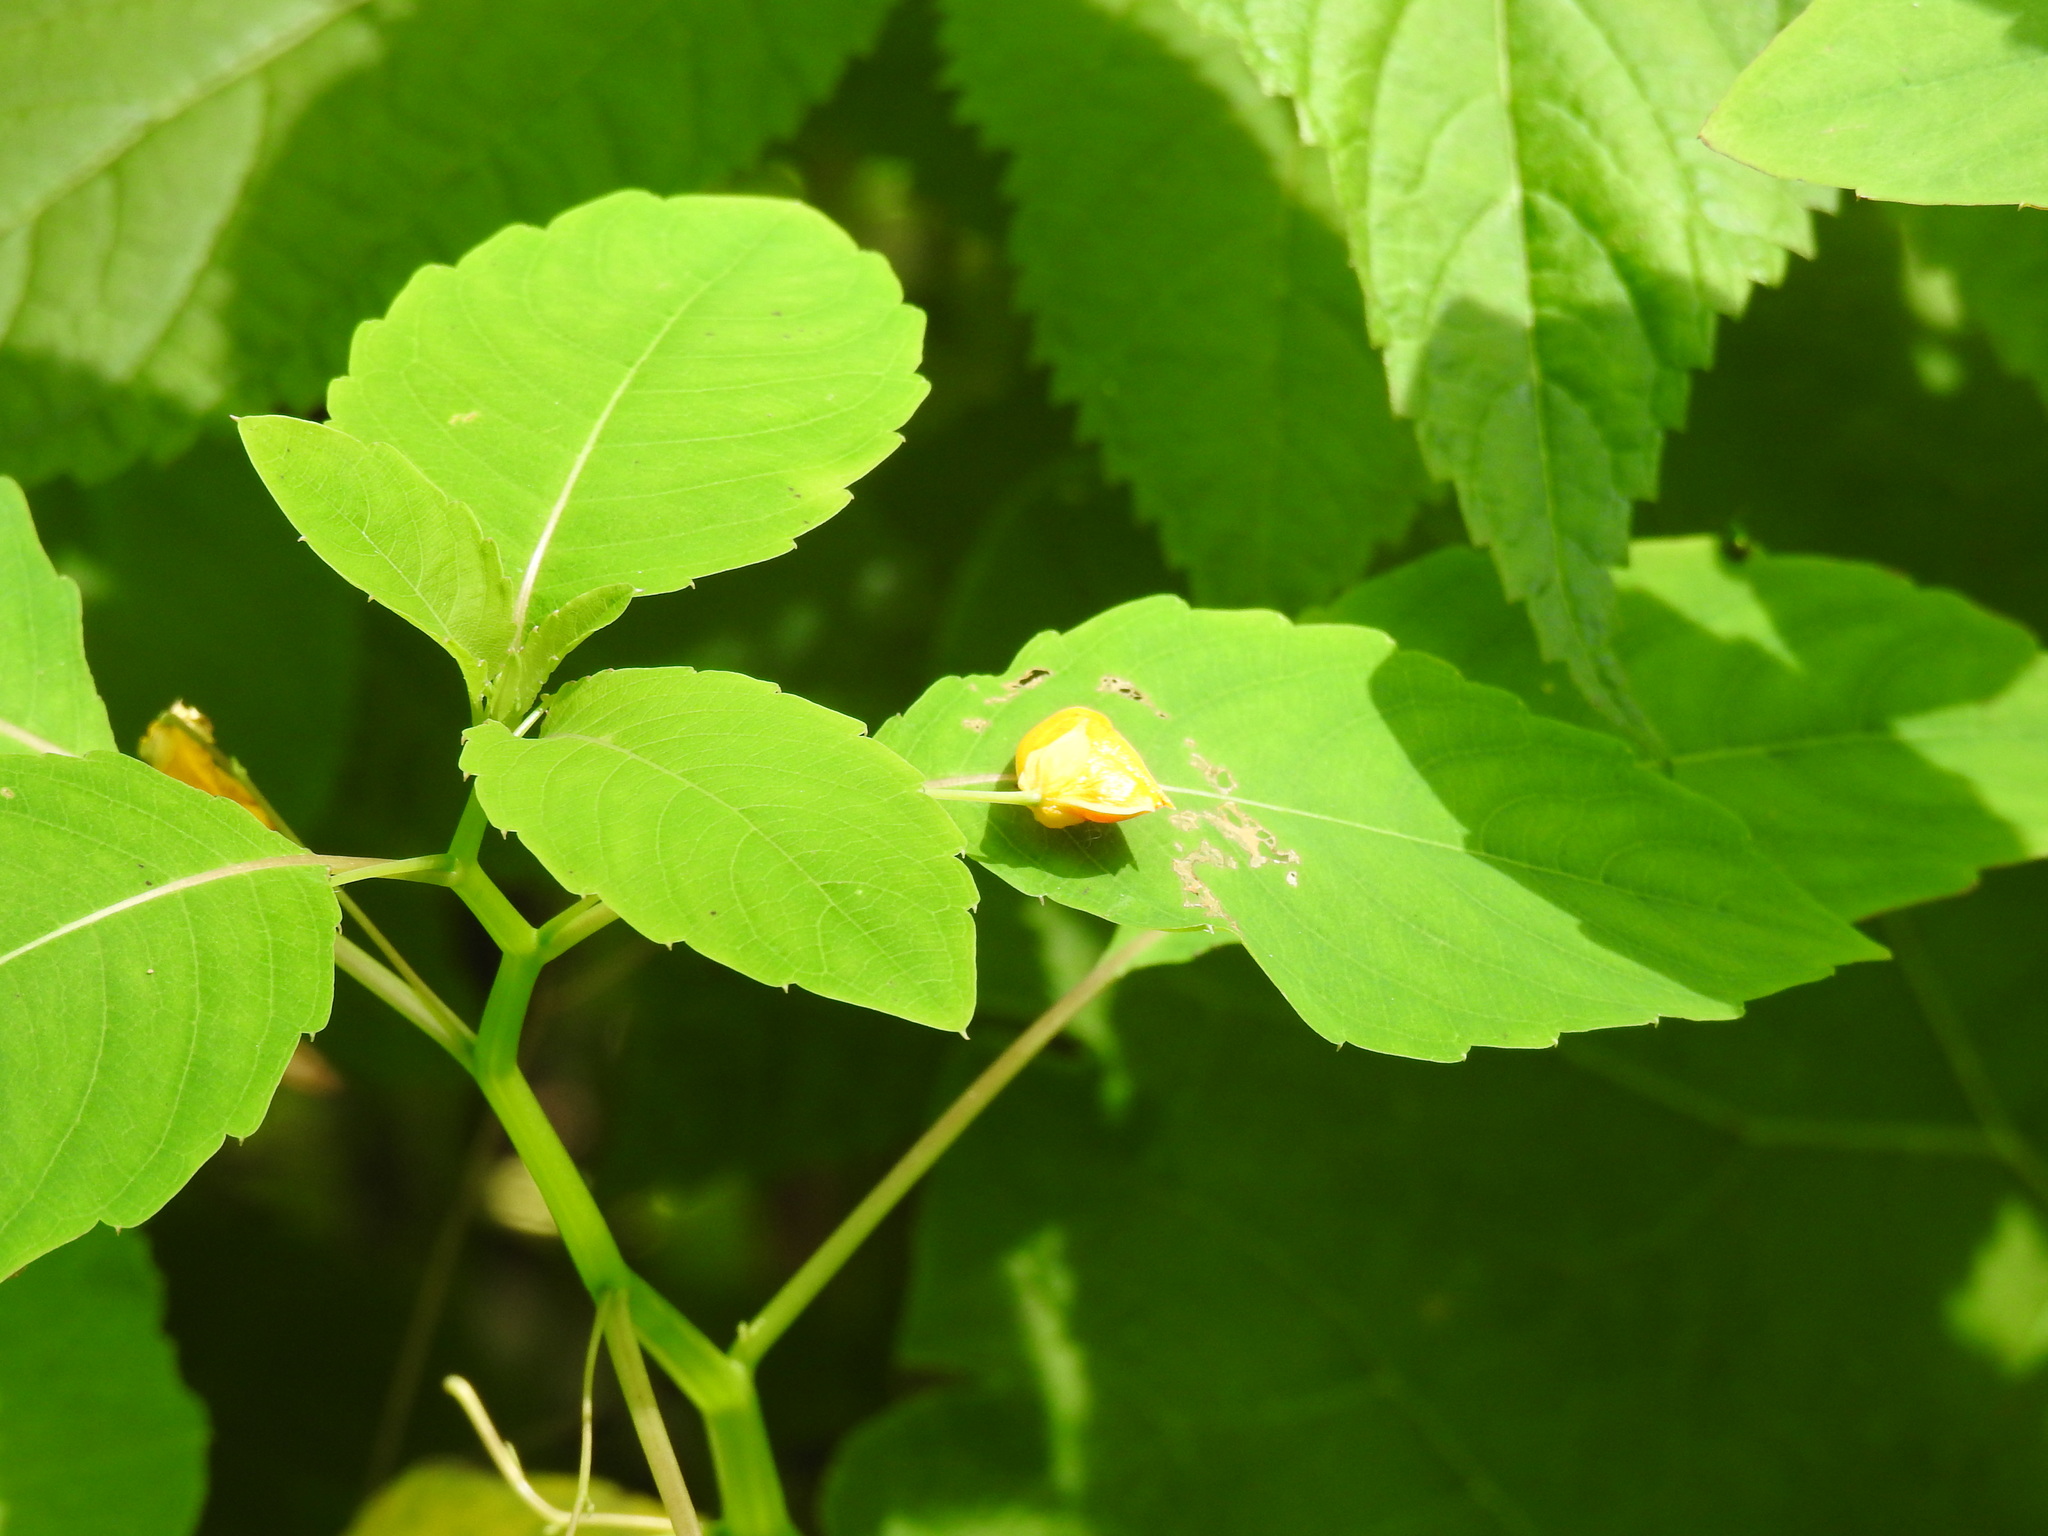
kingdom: Plantae
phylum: Tracheophyta
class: Magnoliopsida
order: Ericales
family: Balsaminaceae
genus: Impatiens
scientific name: Impatiens capensis
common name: Orange balsam
